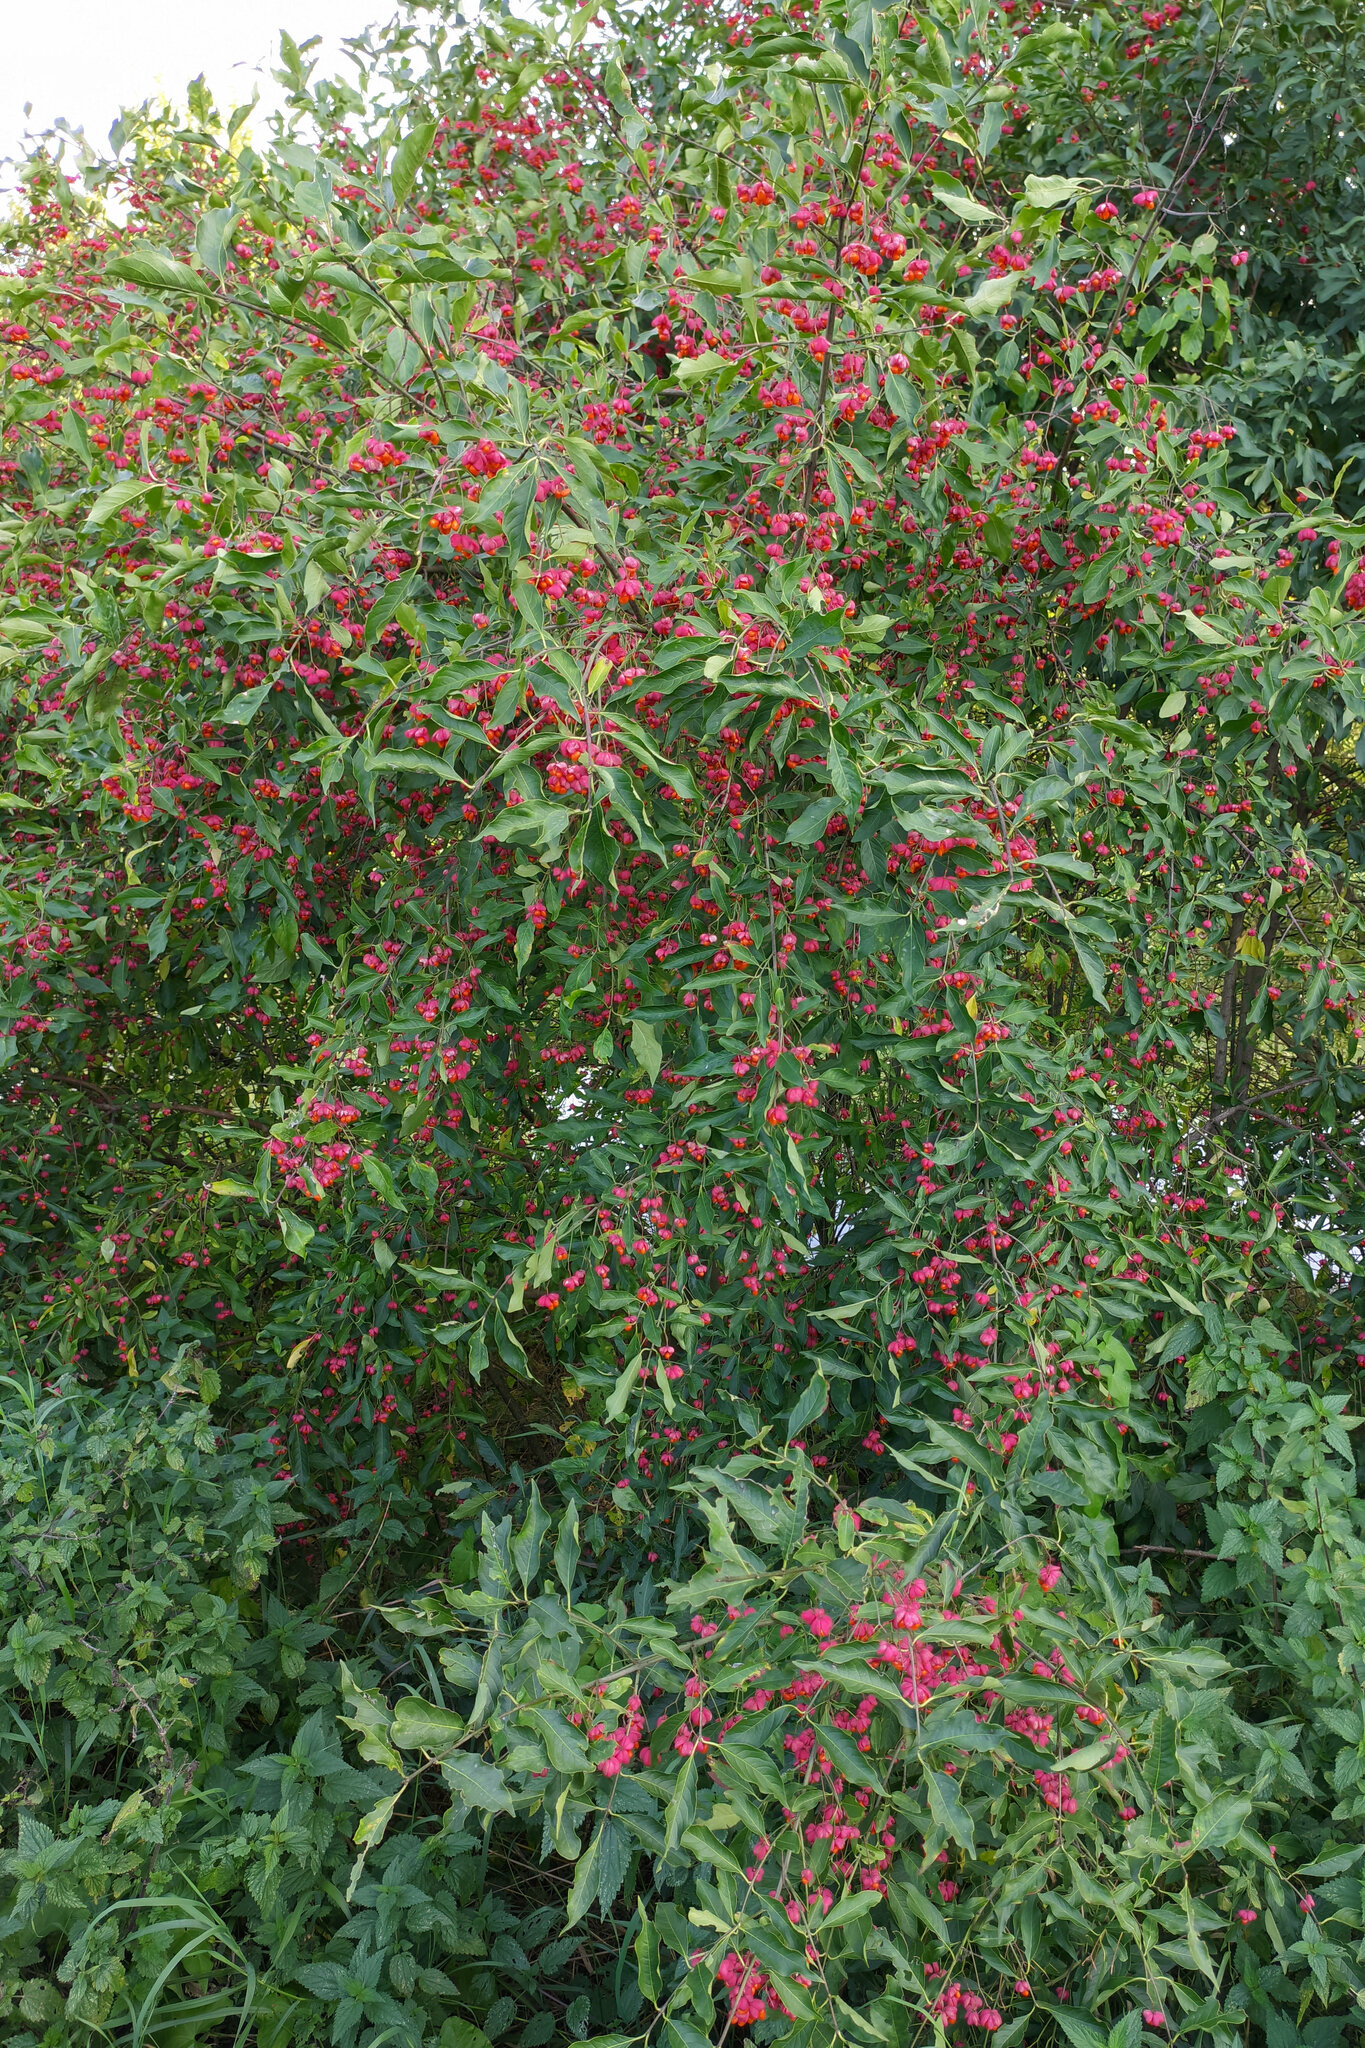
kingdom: Plantae
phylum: Tracheophyta
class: Magnoliopsida
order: Celastrales
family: Celastraceae
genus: Euonymus
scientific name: Euonymus europaeus
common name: Spindle
